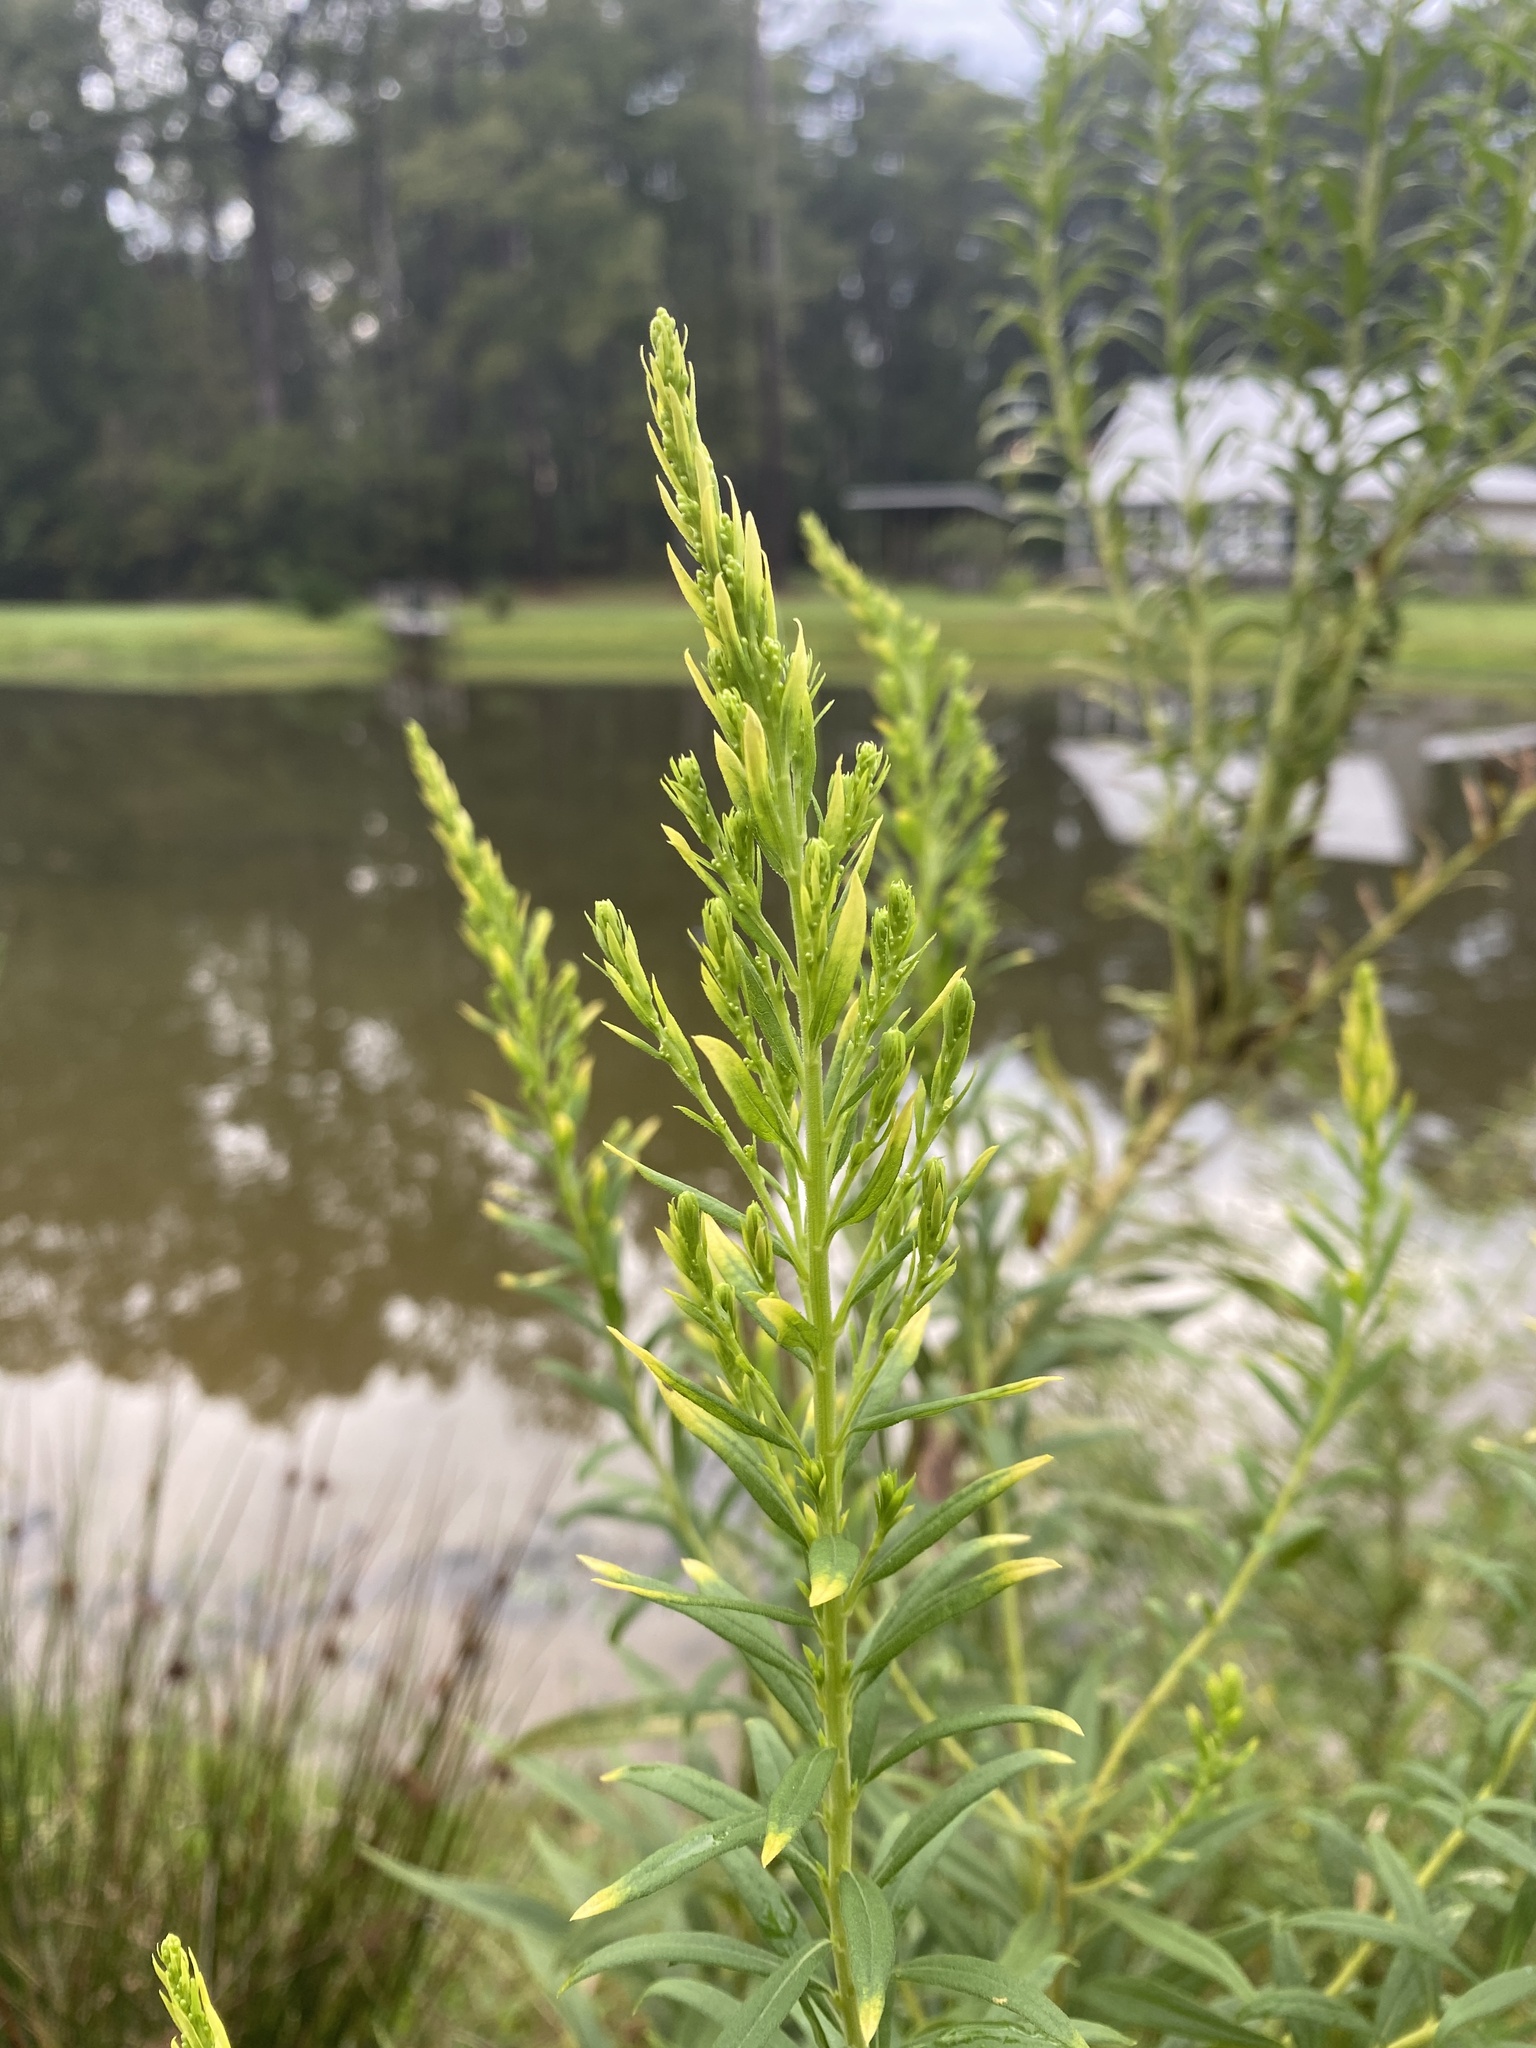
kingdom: Plantae
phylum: Tracheophyta
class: Magnoliopsida
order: Asterales
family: Asteraceae
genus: Solidago
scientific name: Solidago altissima
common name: Late goldenrod
